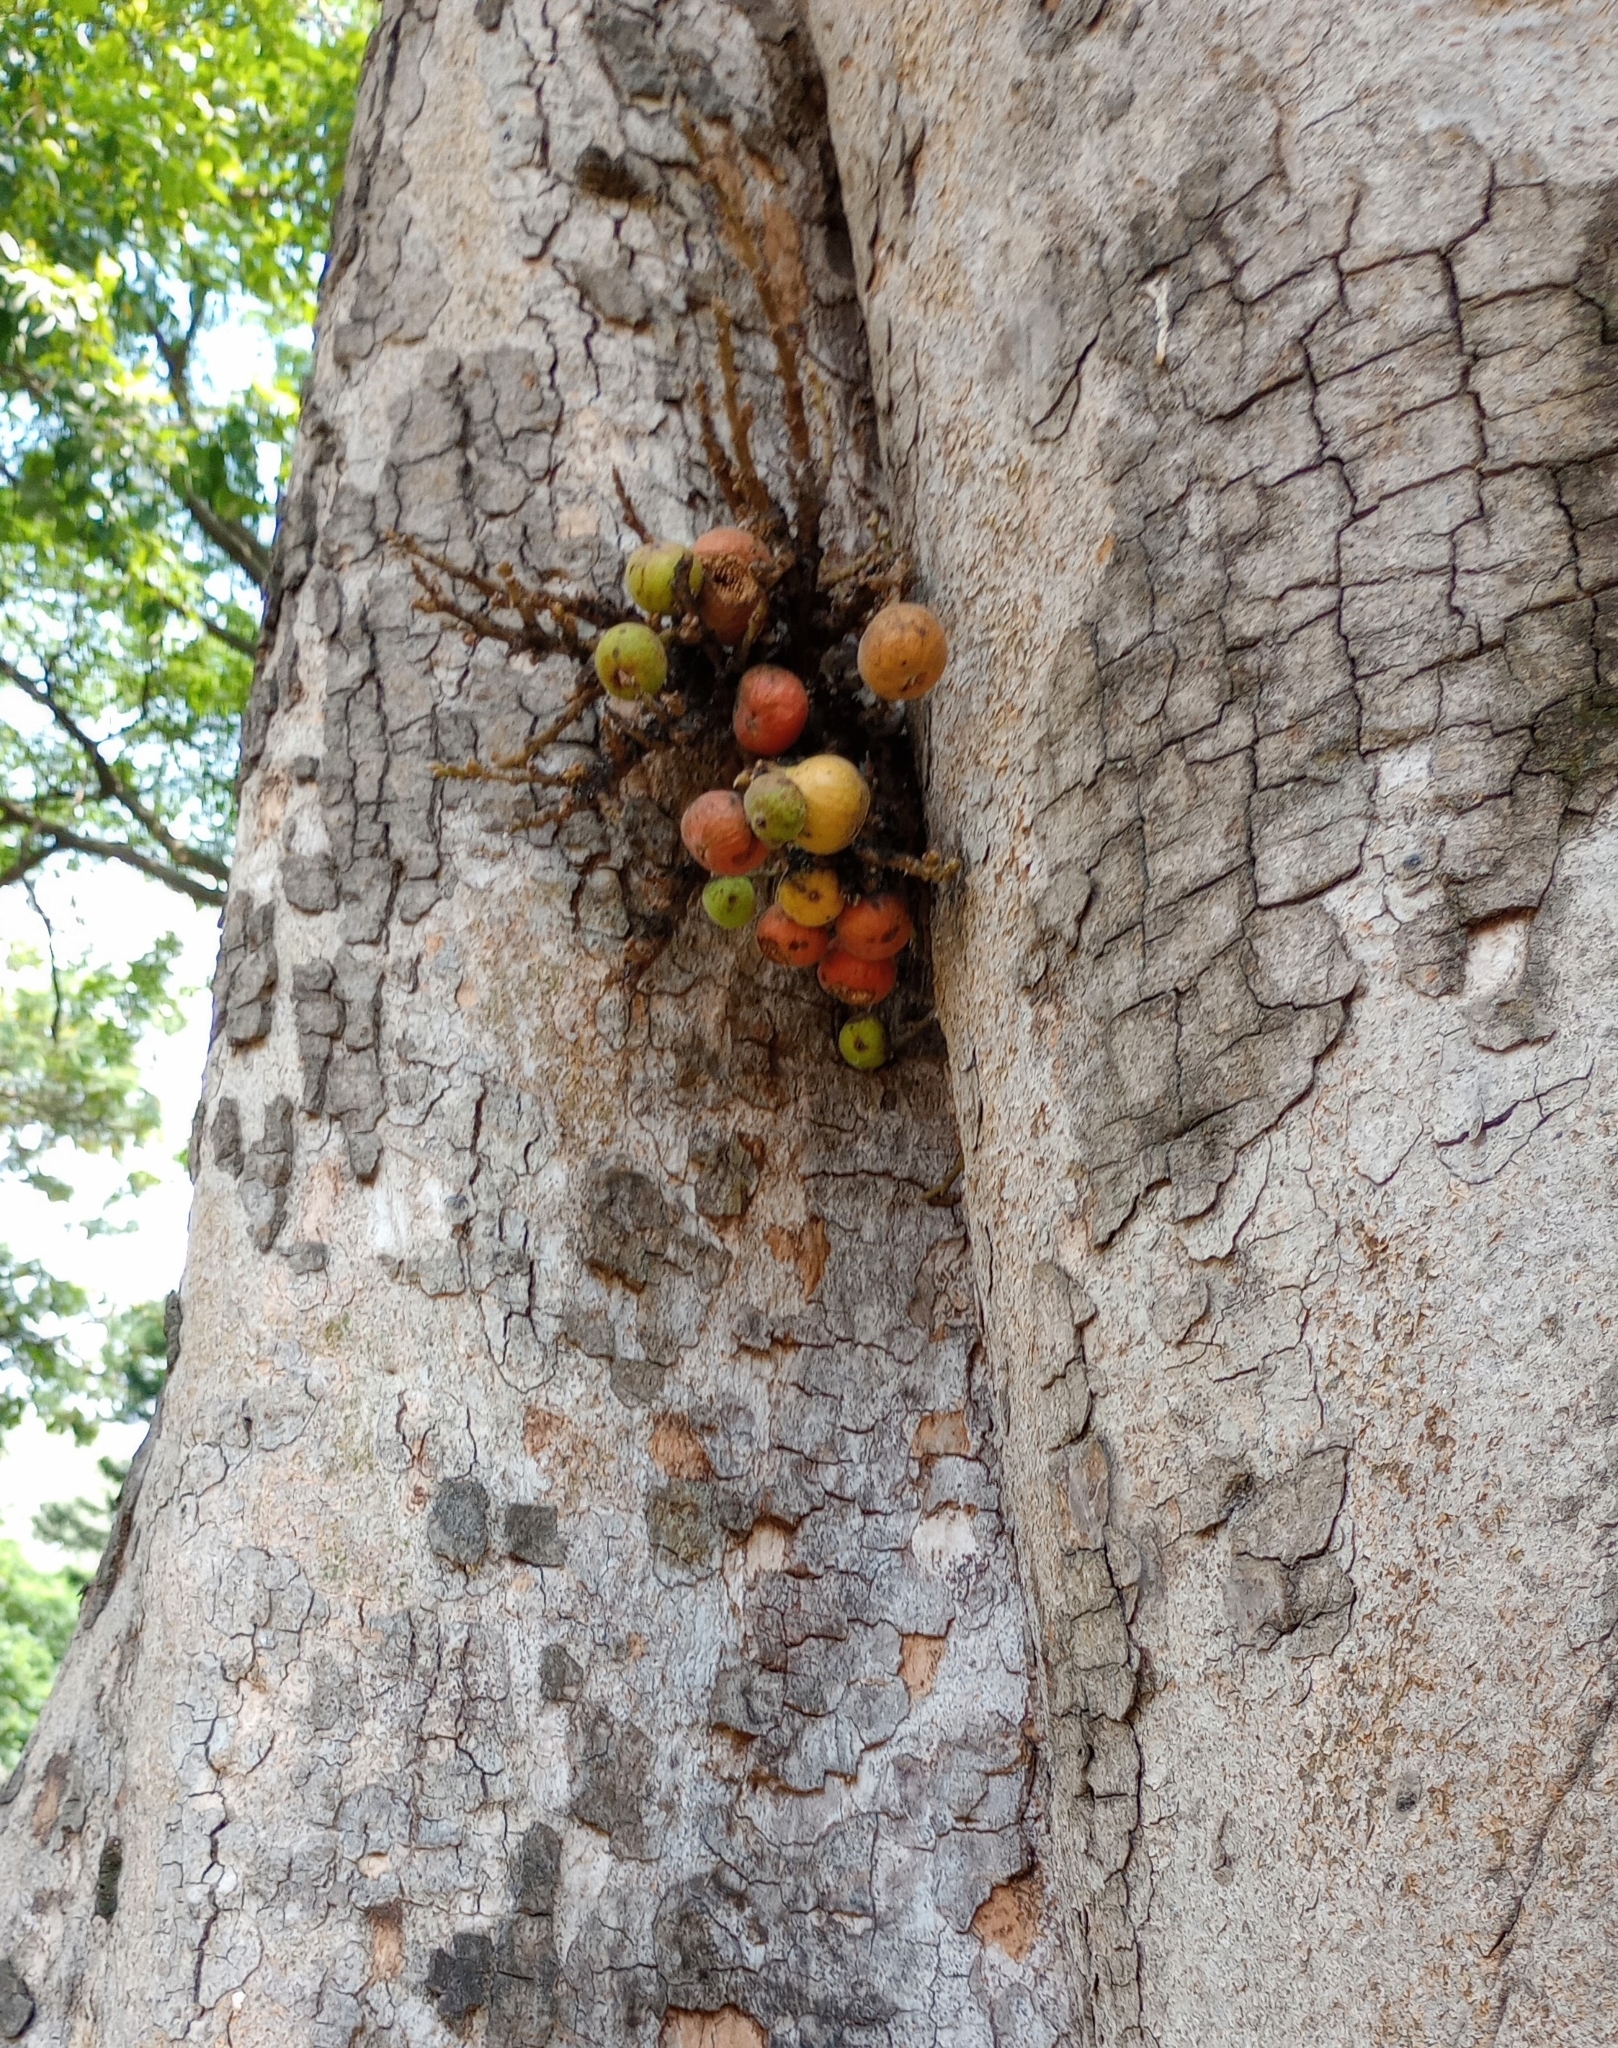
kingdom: Plantae
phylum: Tracheophyta
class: Magnoliopsida
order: Rosales
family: Moraceae
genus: Ficus
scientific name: Ficus racemosa
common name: Cluster fig
